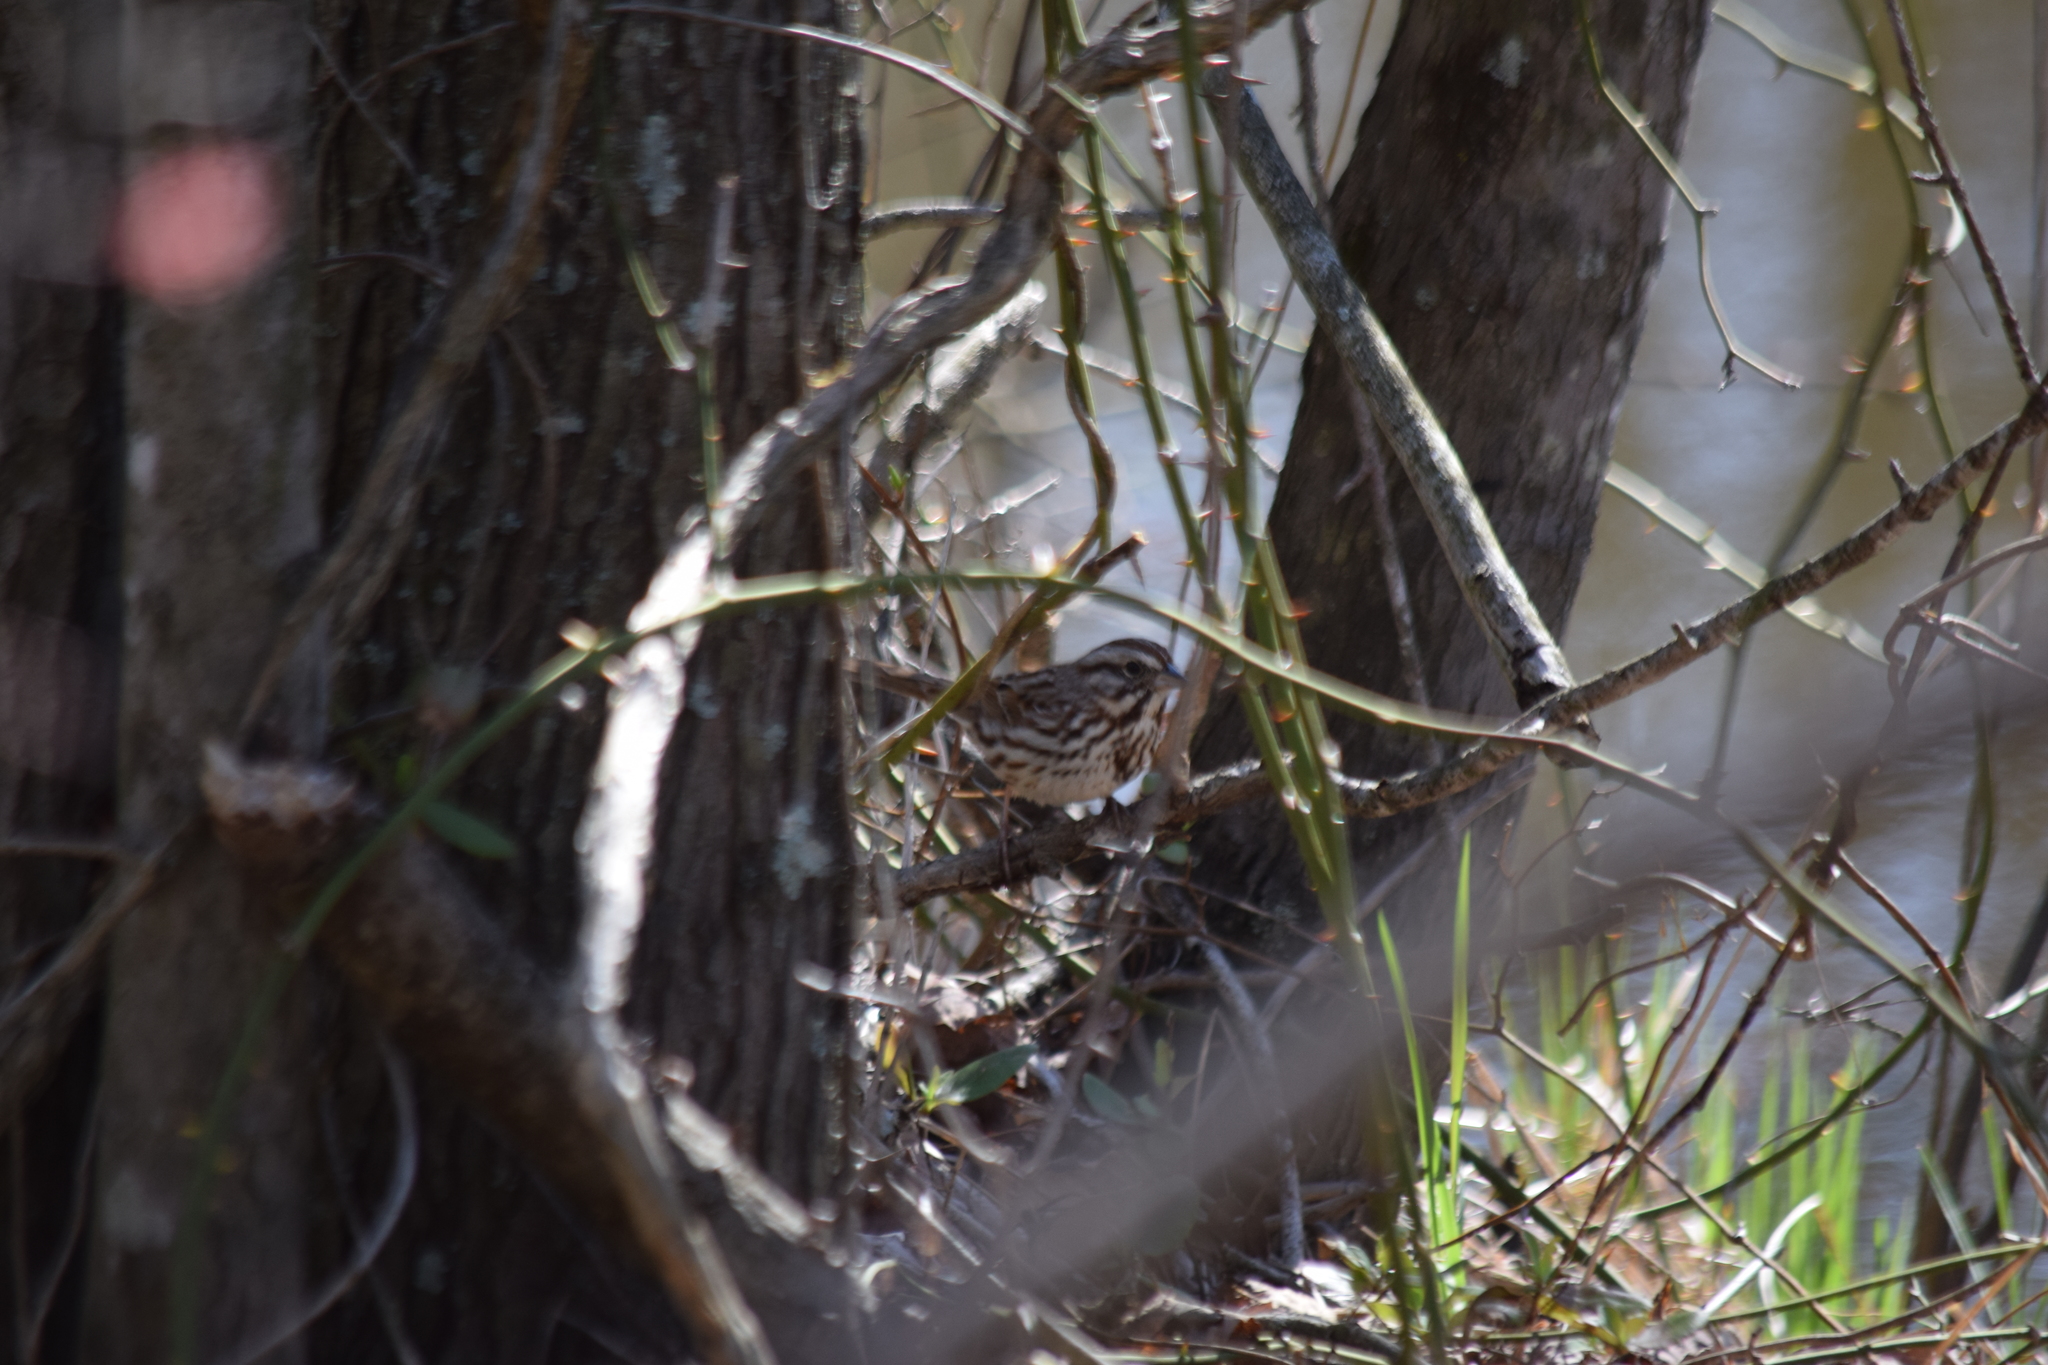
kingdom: Animalia
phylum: Chordata
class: Aves
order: Passeriformes
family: Passerellidae
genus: Melospiza
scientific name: Melospiza melodia
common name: Song sparrow
